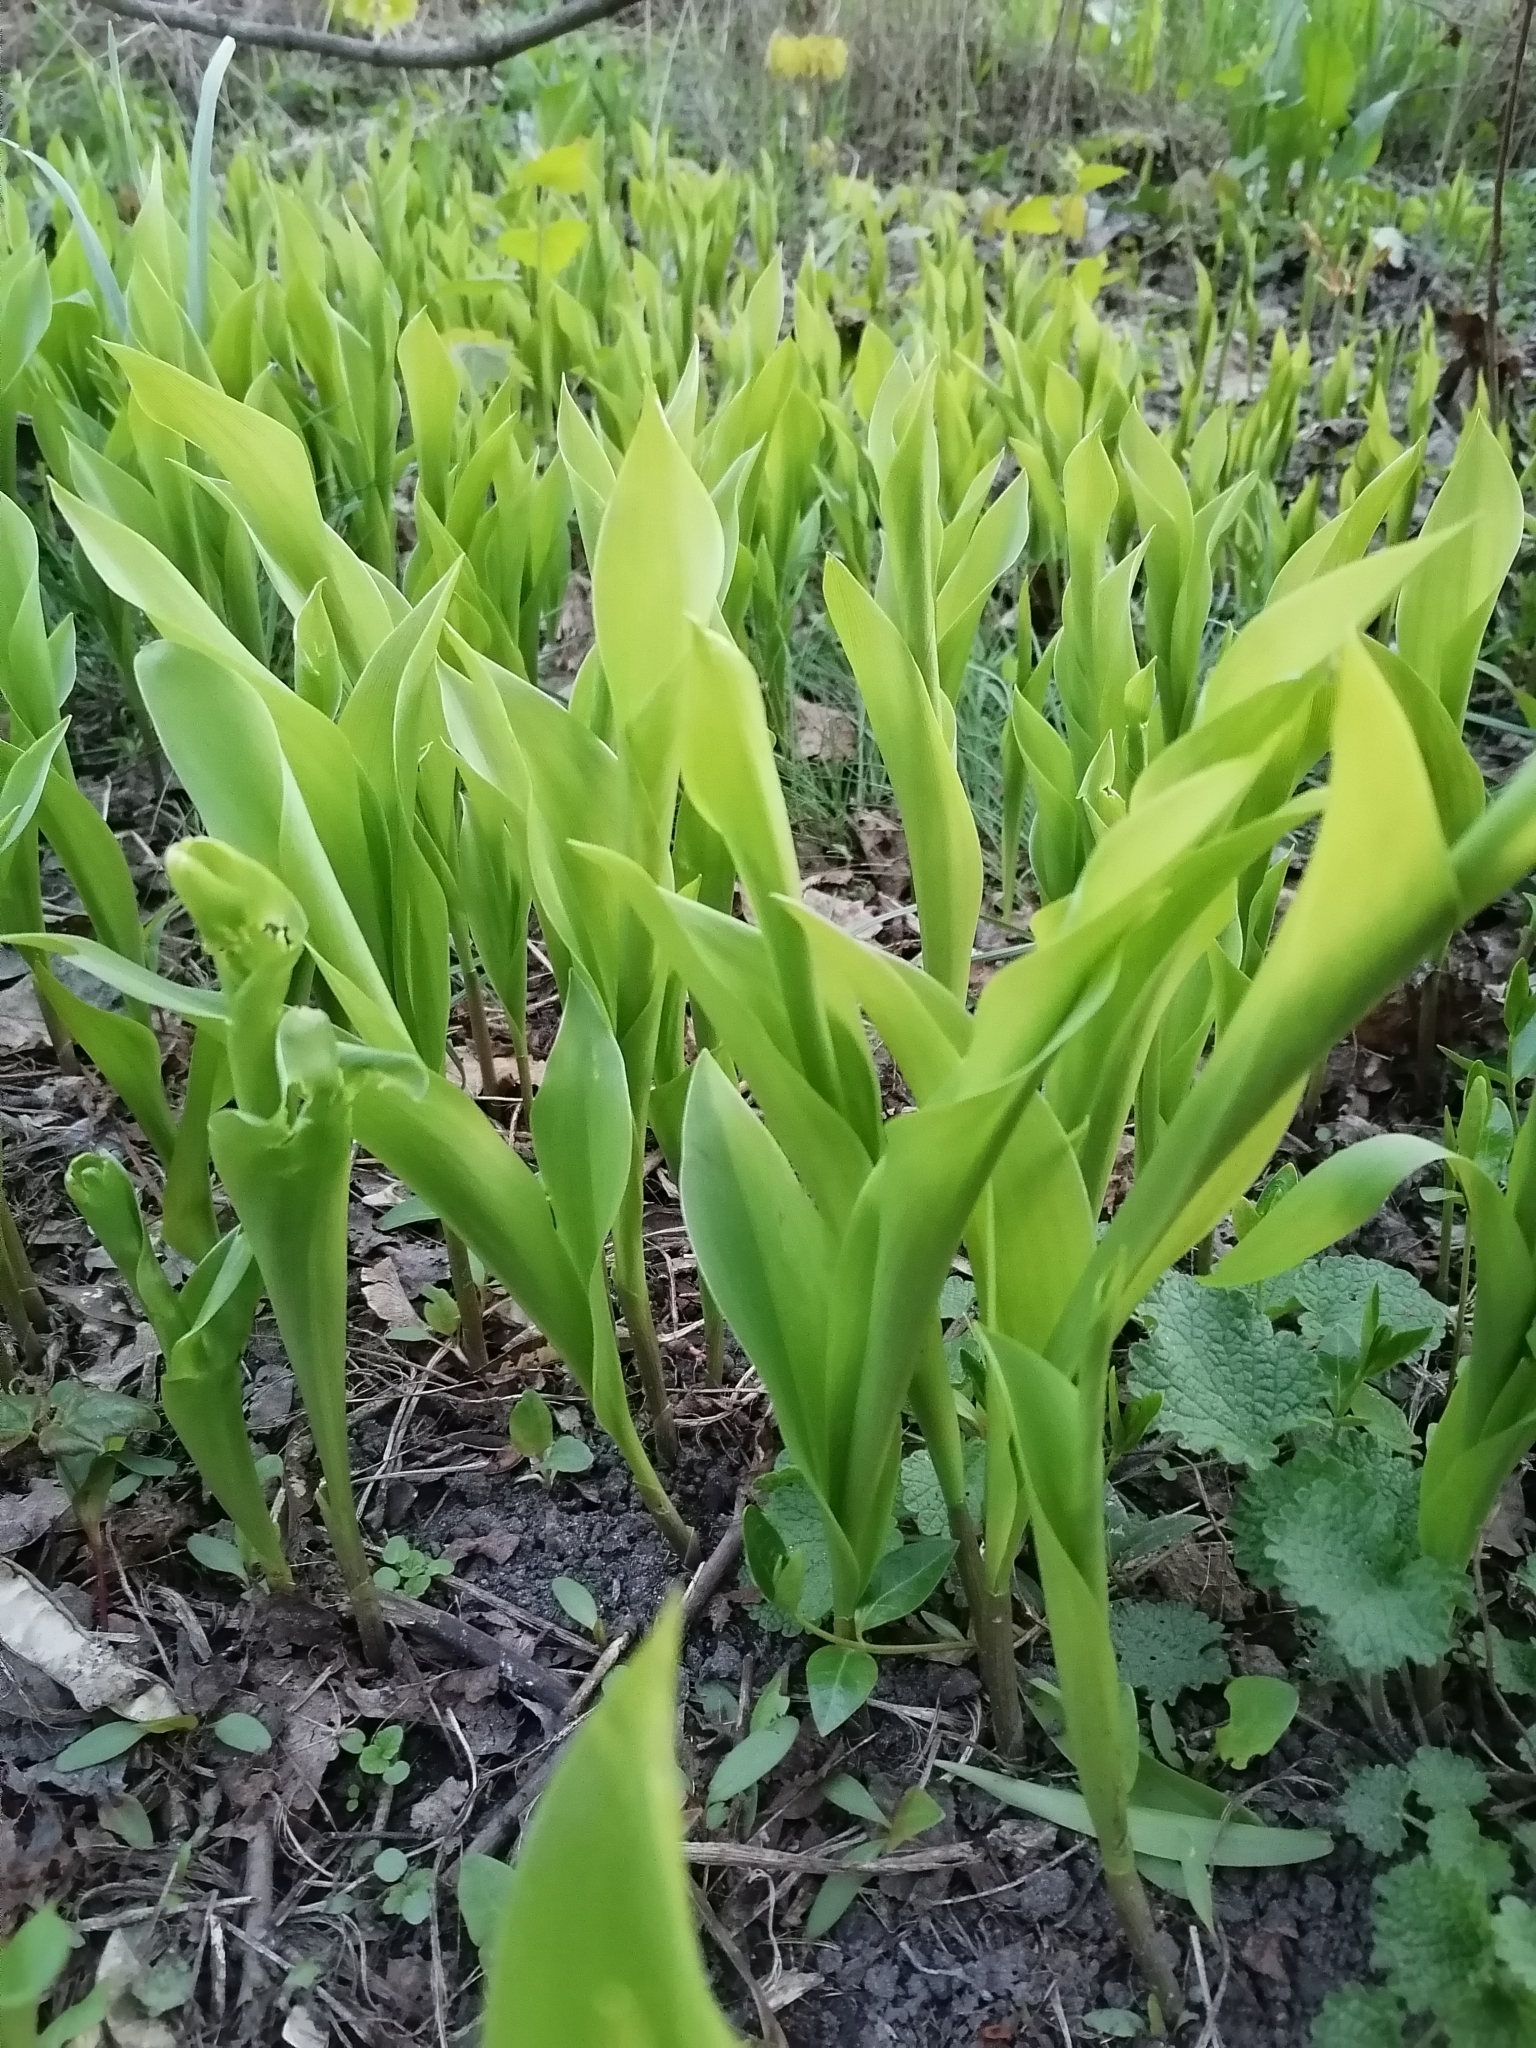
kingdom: Plantae
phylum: Tracheophyta
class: Liliopsida
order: Asparagales
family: Asparagaceae
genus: Convallaria
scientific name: Convallaria majalis
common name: Lily-of-the-valley
